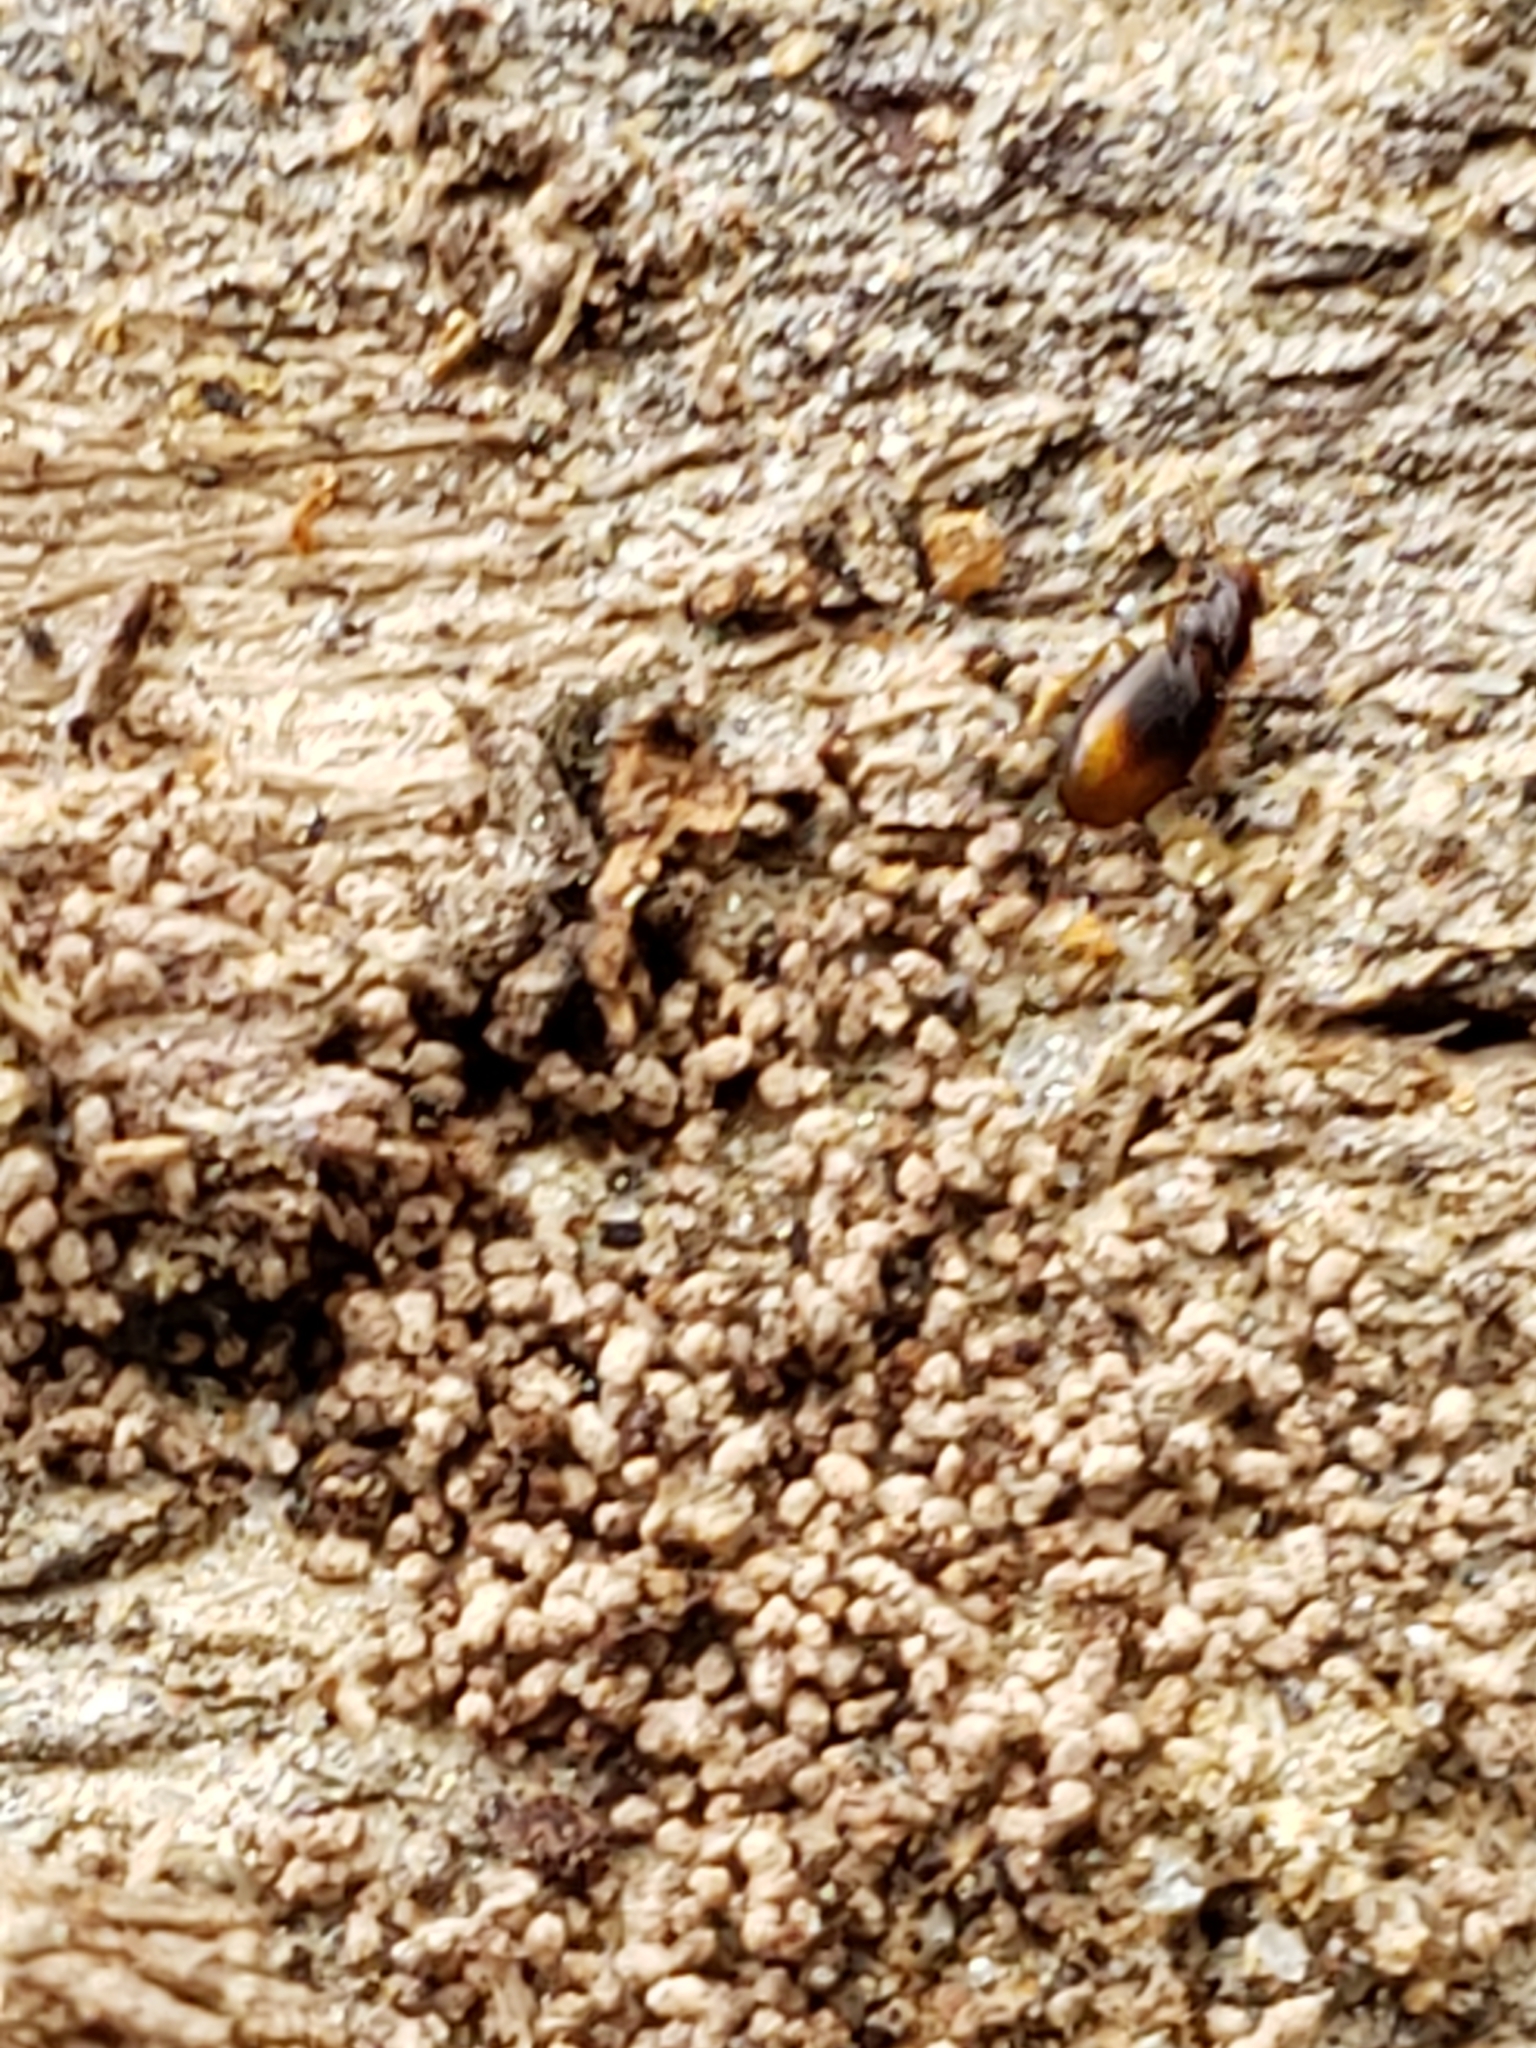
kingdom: Animalia
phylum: Arthropoda
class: Insecta
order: Coleoptera
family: Carabidae
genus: Mioptachys
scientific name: Mioptachys flavicauda
